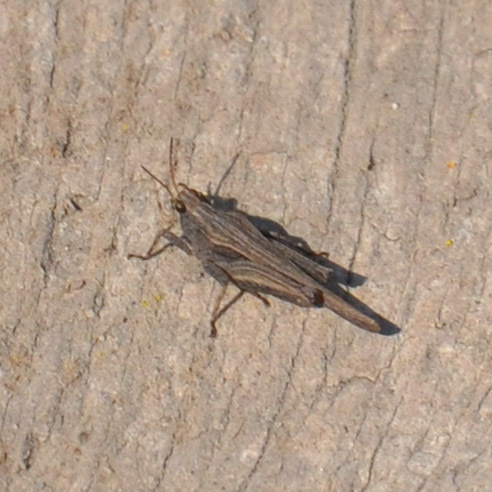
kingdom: Animalia
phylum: Arthropoda
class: Insecta
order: Orthoptera
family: Tetrigidae
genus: Tetrix
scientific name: Tetrix subulata
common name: Slender ground-hopper
